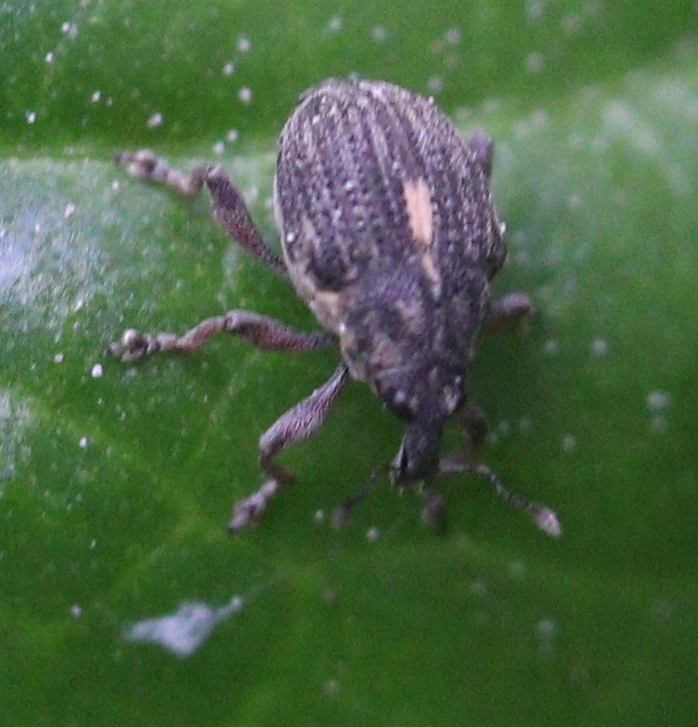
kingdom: Animalia
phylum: Arthropoda
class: Insecta
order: Coleoptera
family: Curculionidae
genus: Rhinoncus
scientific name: Rhinoncus leucostigma
